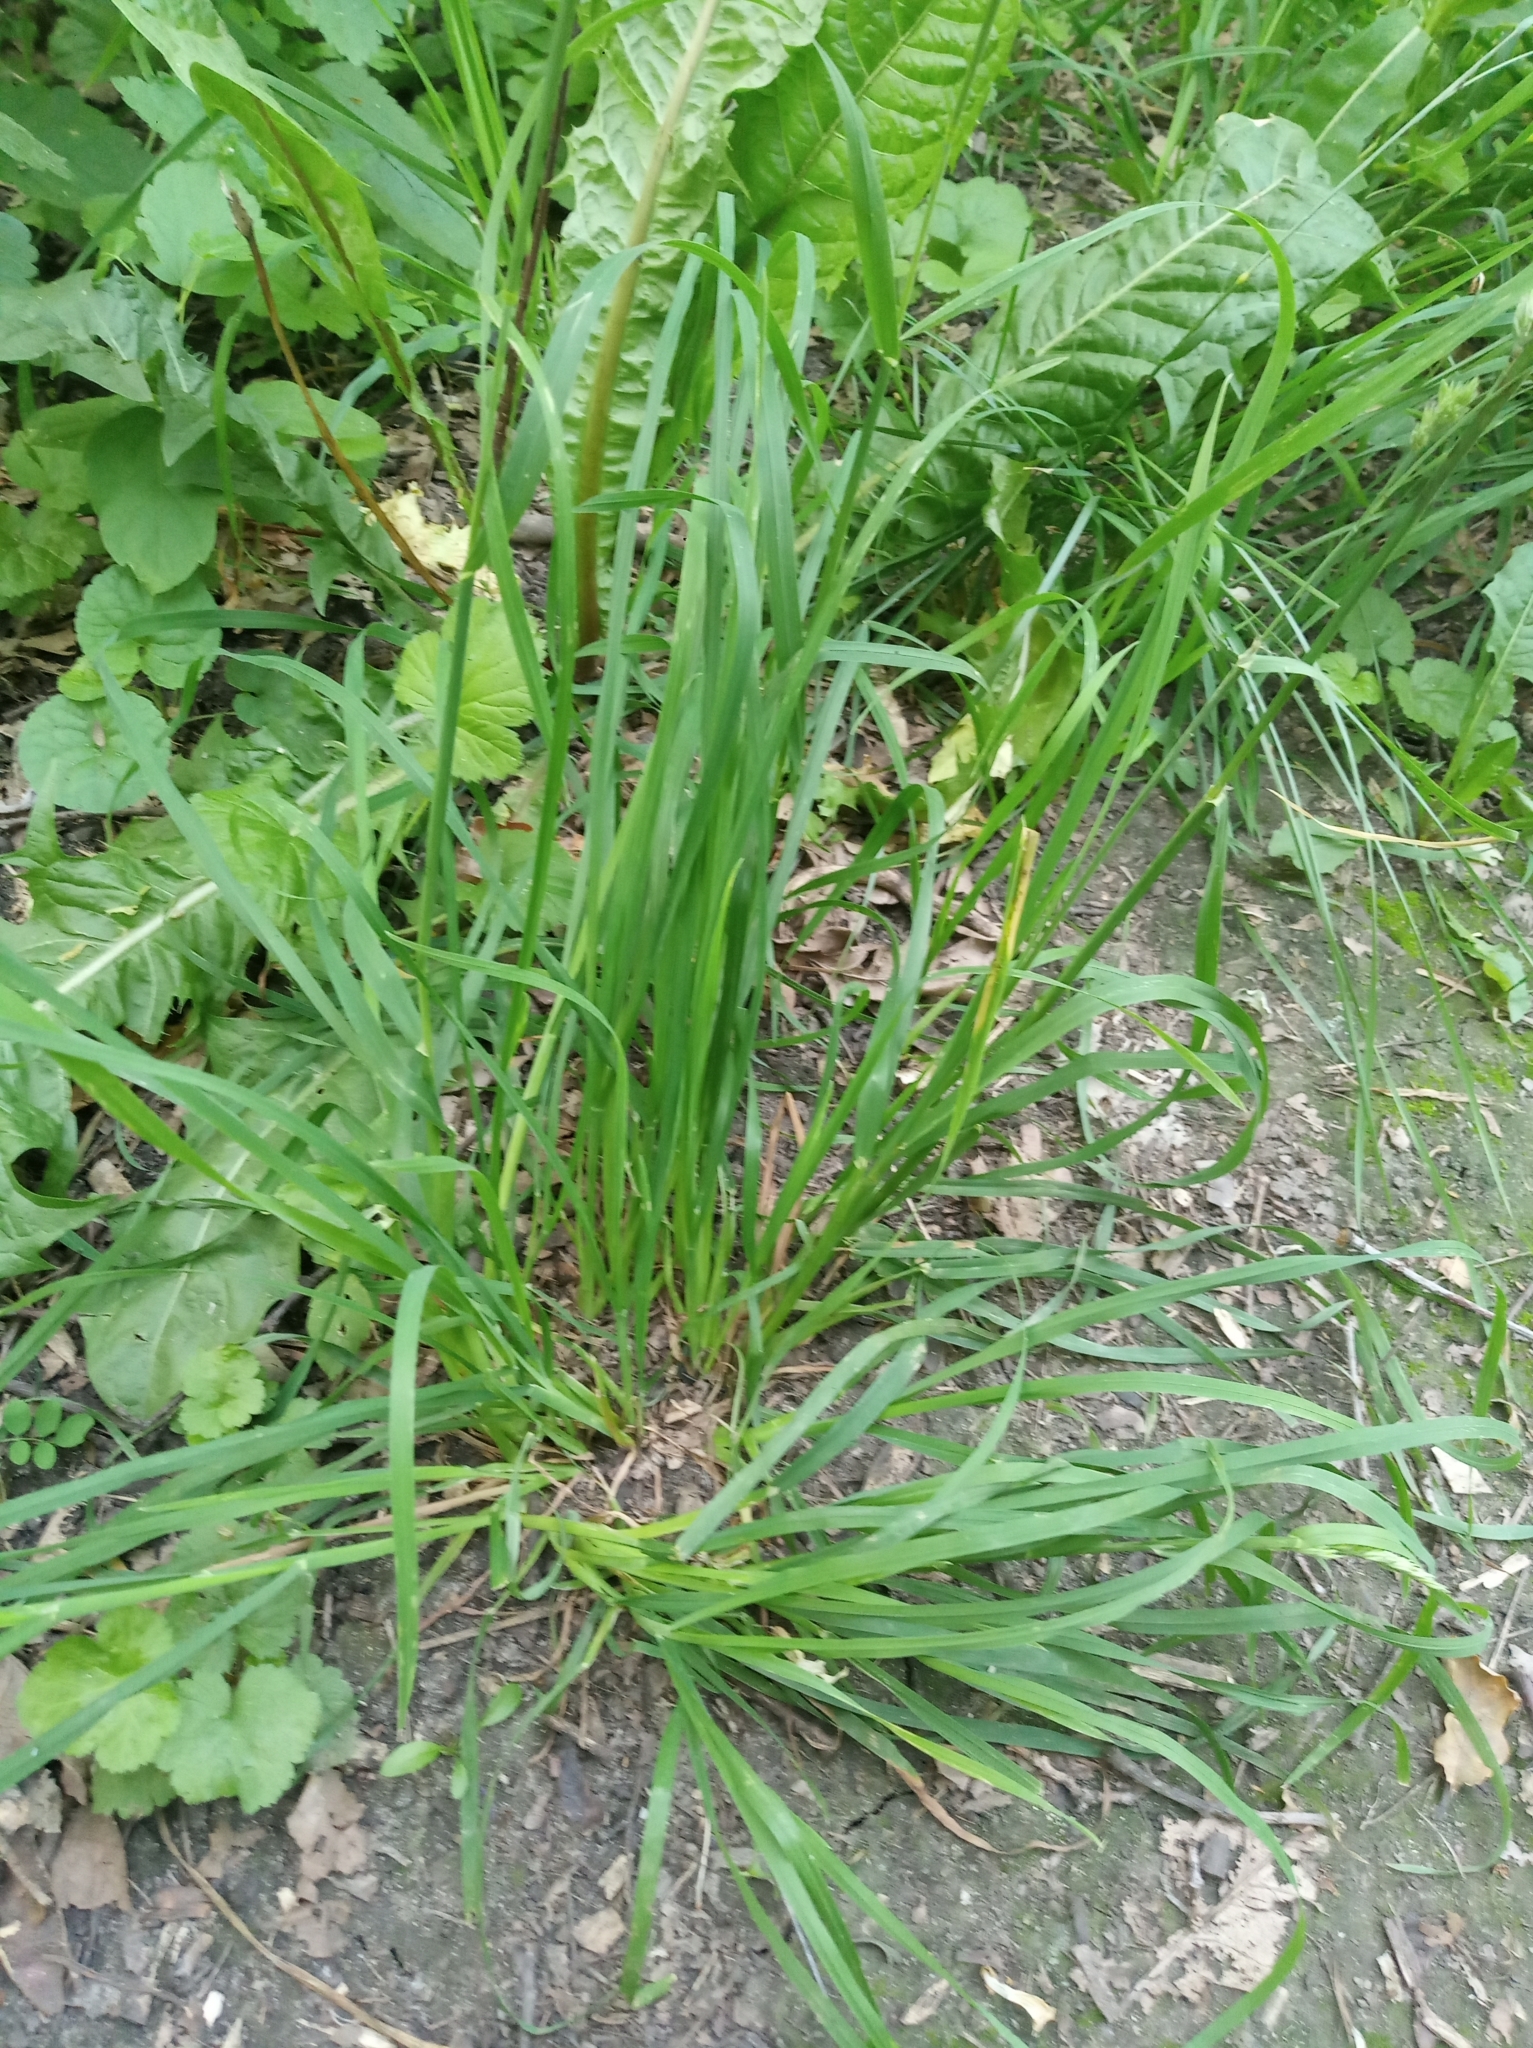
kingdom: Plantae
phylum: Tracheophyta
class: Liliopsida
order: Poales
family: Poaceae
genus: Dactylis
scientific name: Dactylis glomerata
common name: Orchardgrass
